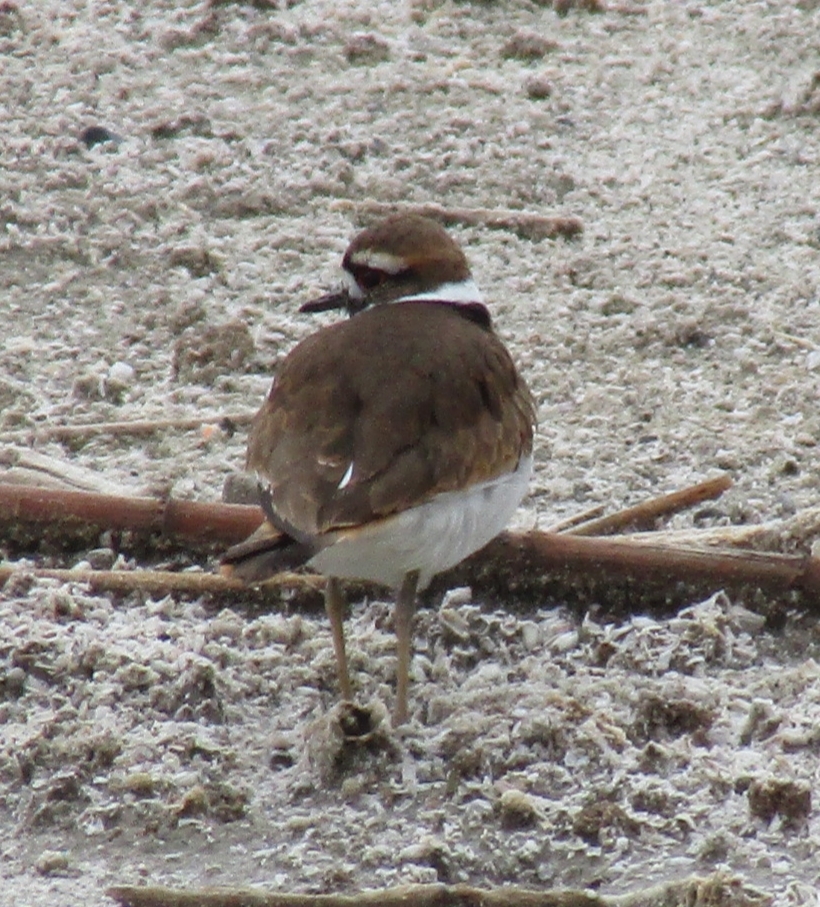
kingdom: Animalia
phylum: Chordata
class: Aves
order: Charadriiformes
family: Charadriidae
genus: Charadrius
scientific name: Charadrius vociferus
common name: Killdeer
